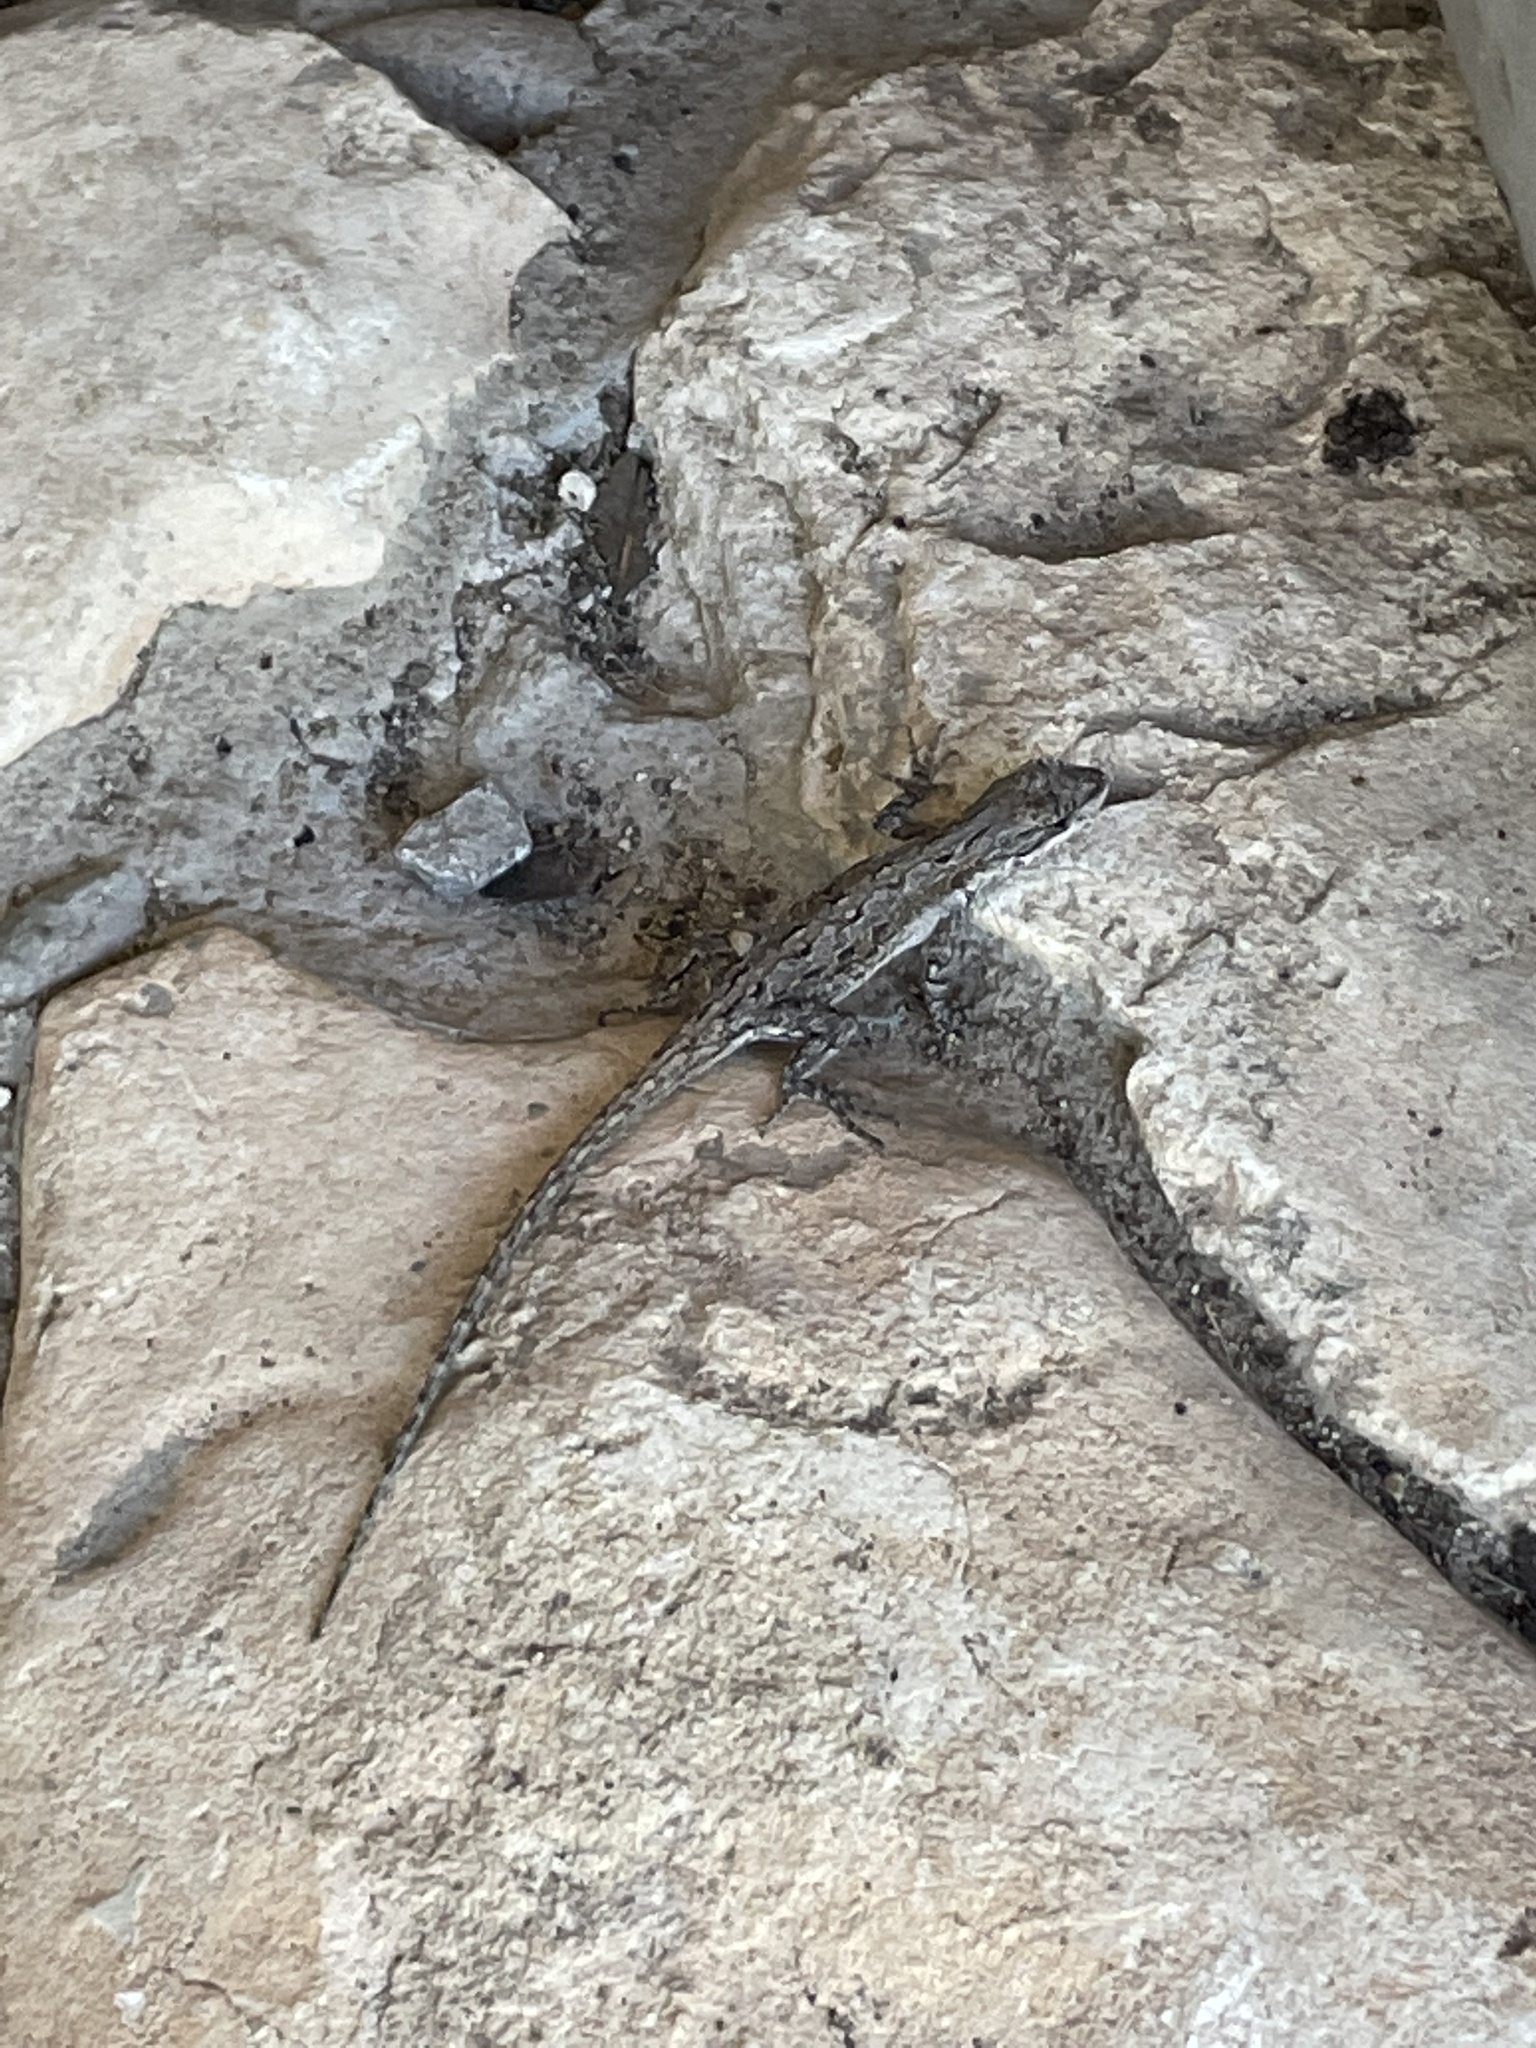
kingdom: Animalia
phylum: Chordata
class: Squamata
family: Phrynosomatidae
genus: Urosaurus
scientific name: Urosaurus ornatus
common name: Ornate tree lizard
